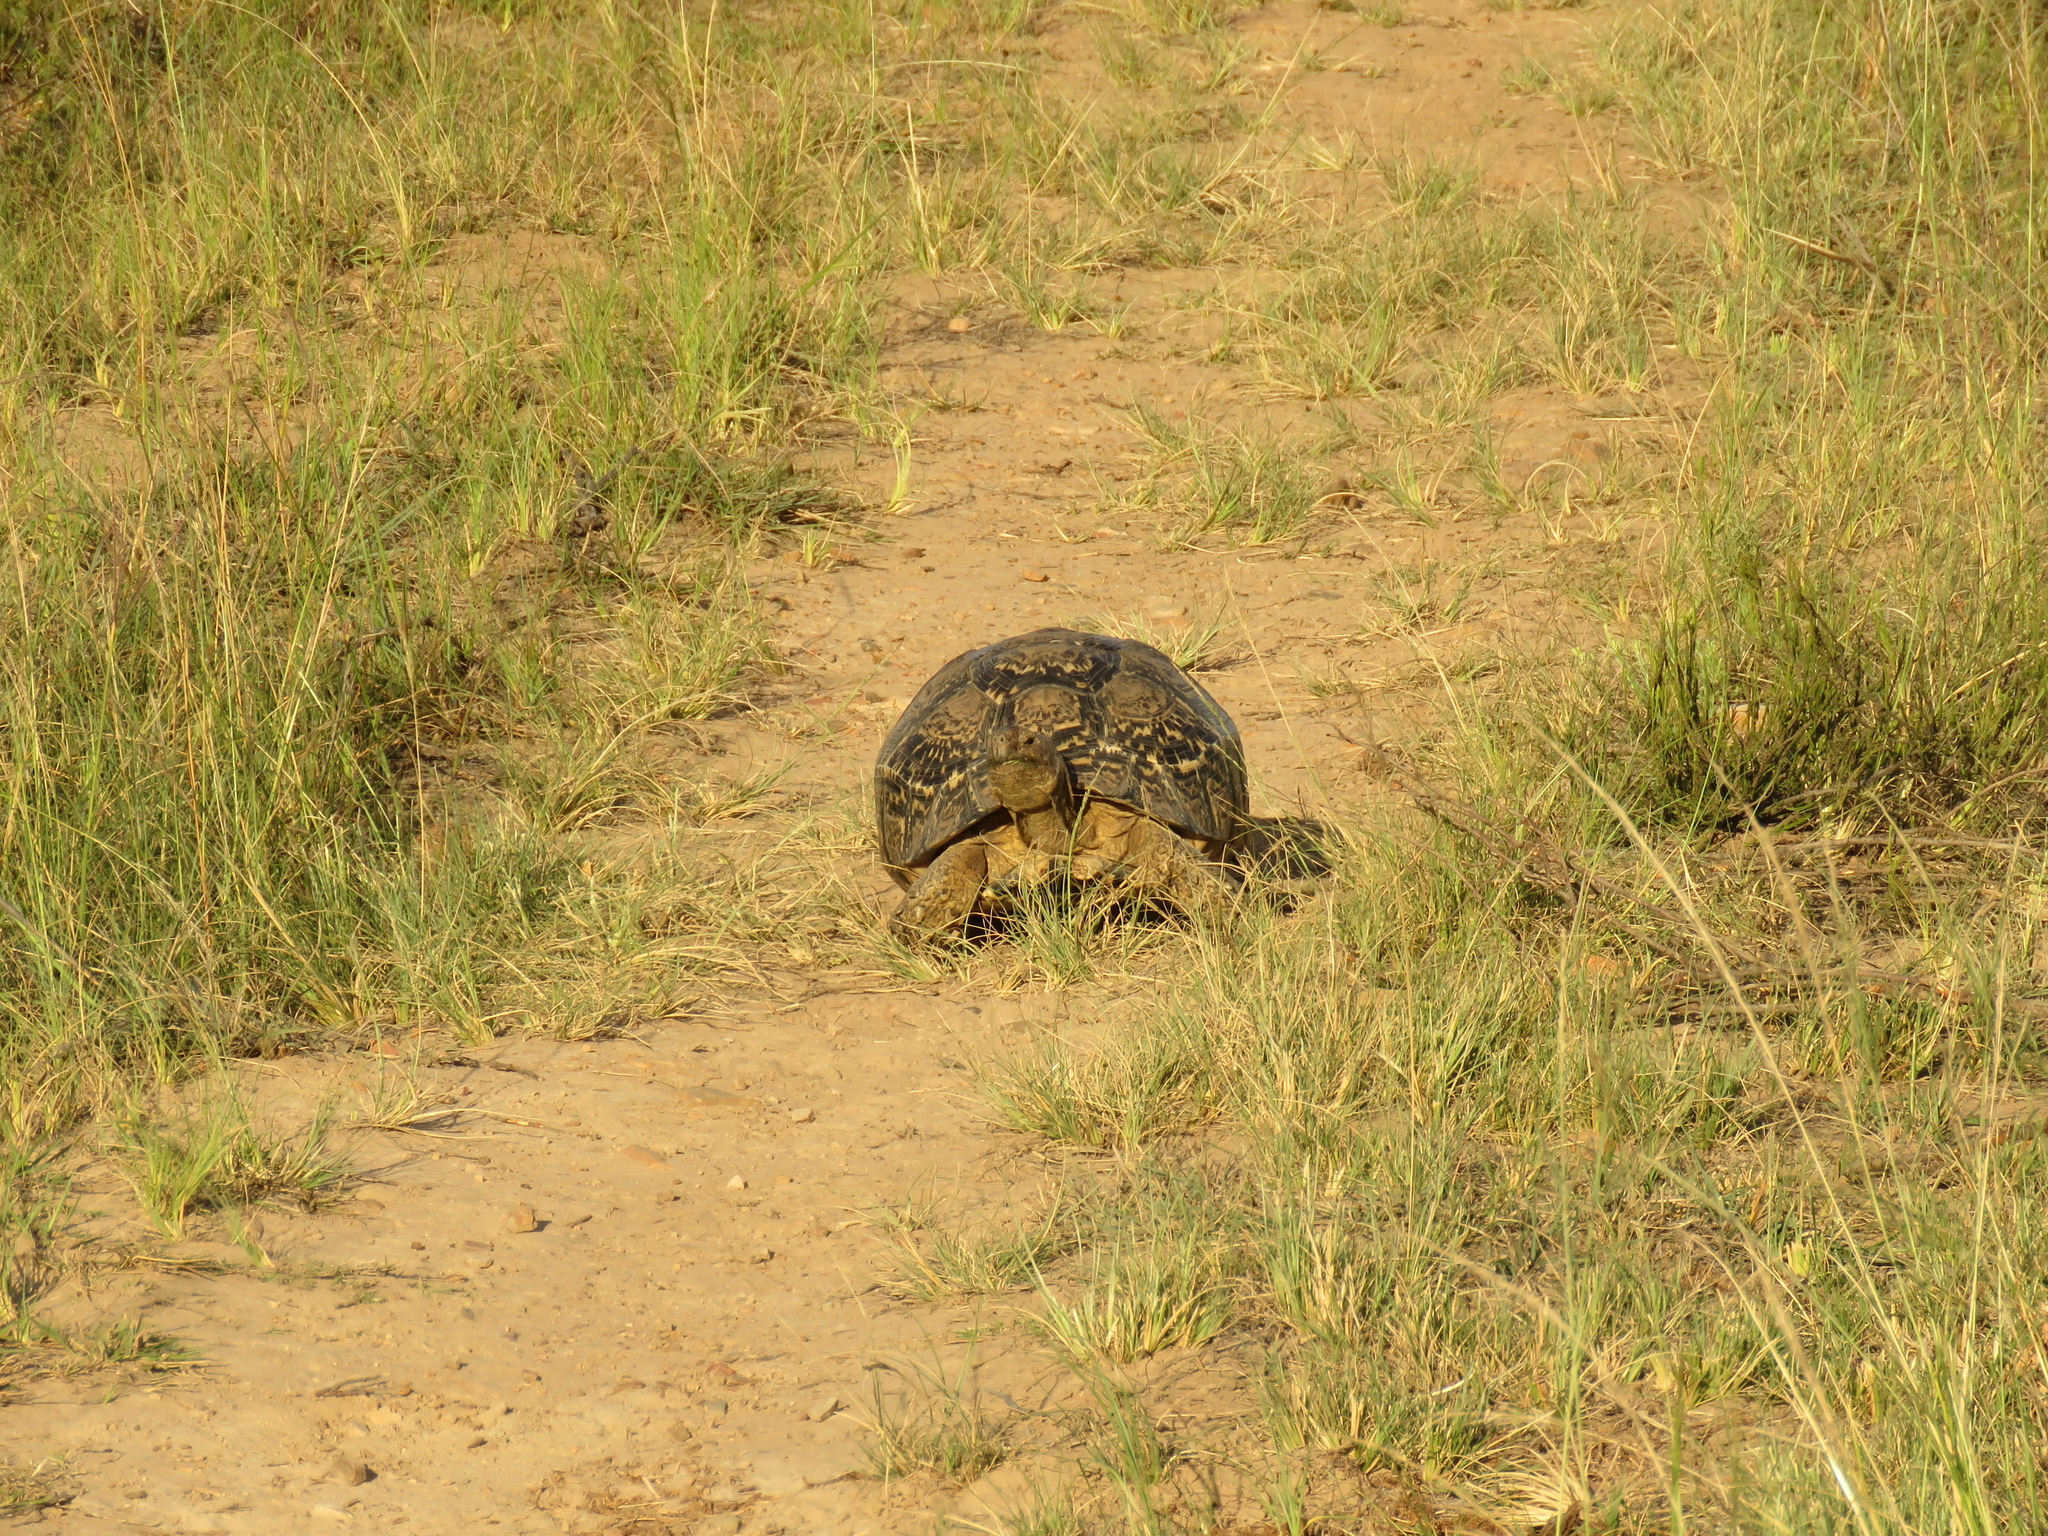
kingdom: Animalia
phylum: Chordata
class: Testudines
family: Testudinidae
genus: Stigmochelys
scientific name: Stigmochelys pardalis
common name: Leopard tortoise
